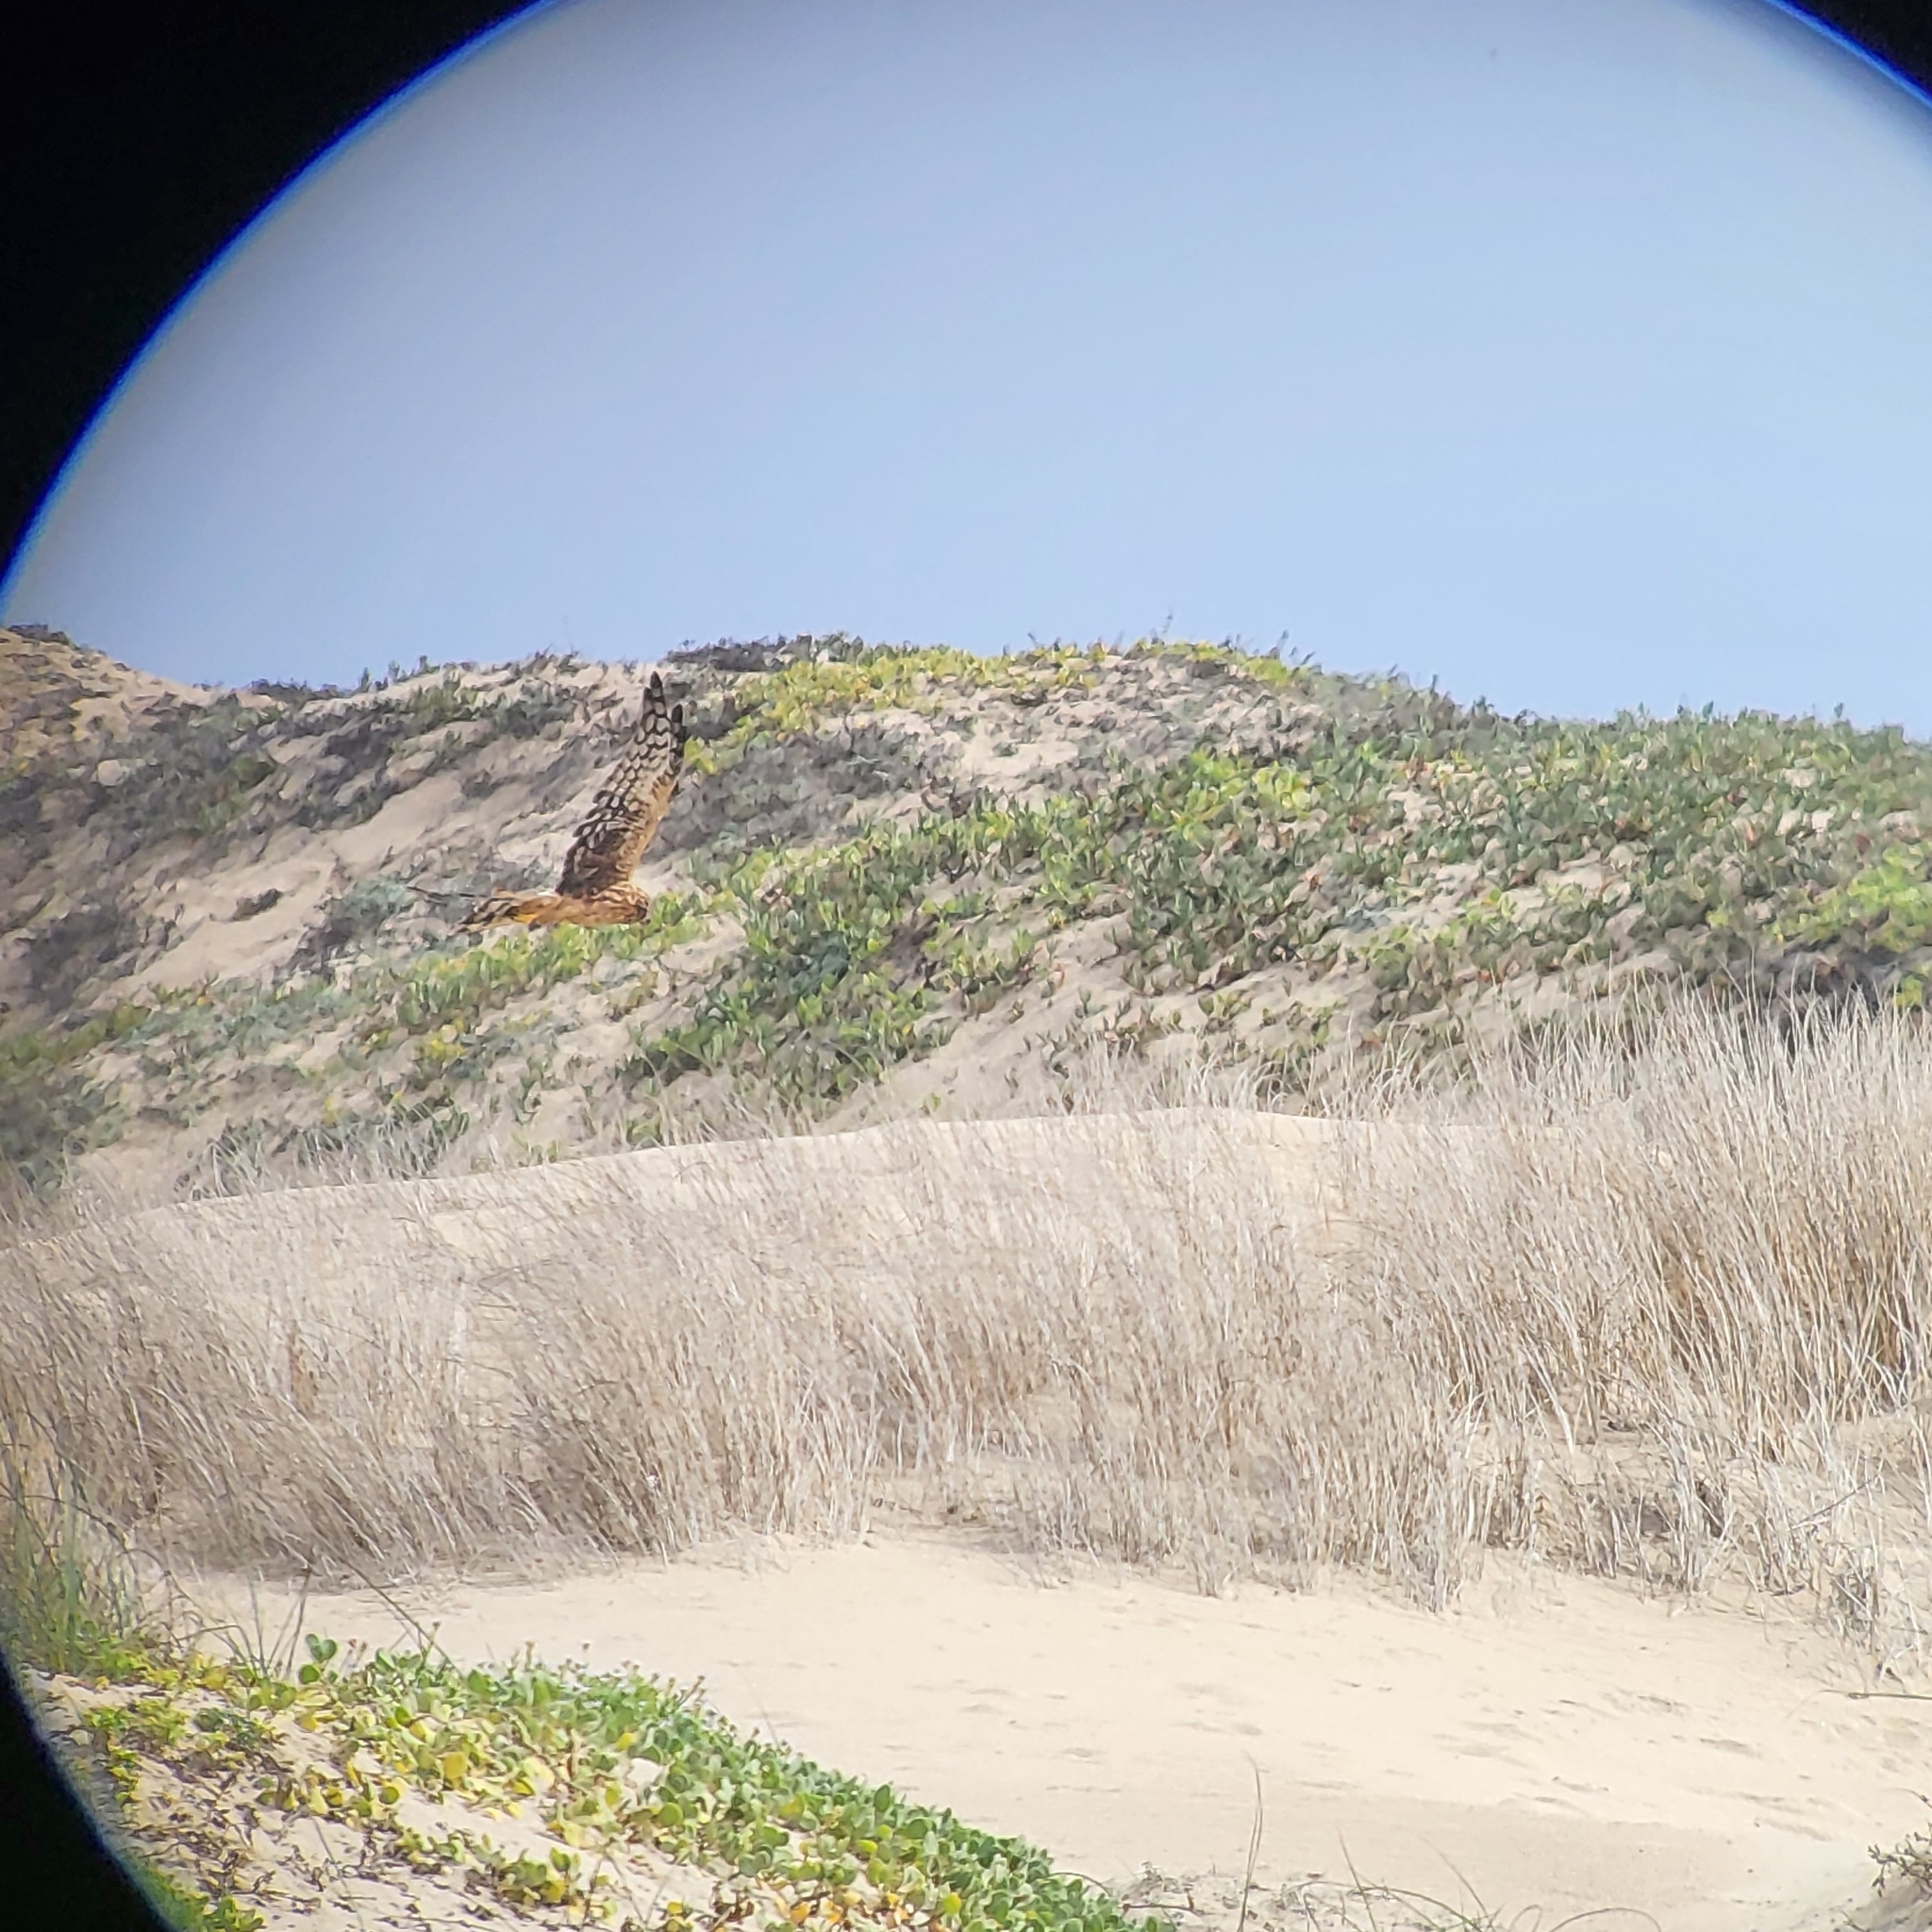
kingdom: Animalia
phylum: Chordata
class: Aves
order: Accipitriformes
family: Accipitridae
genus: Circus
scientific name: Circus cyaneus
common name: Hen harrier
